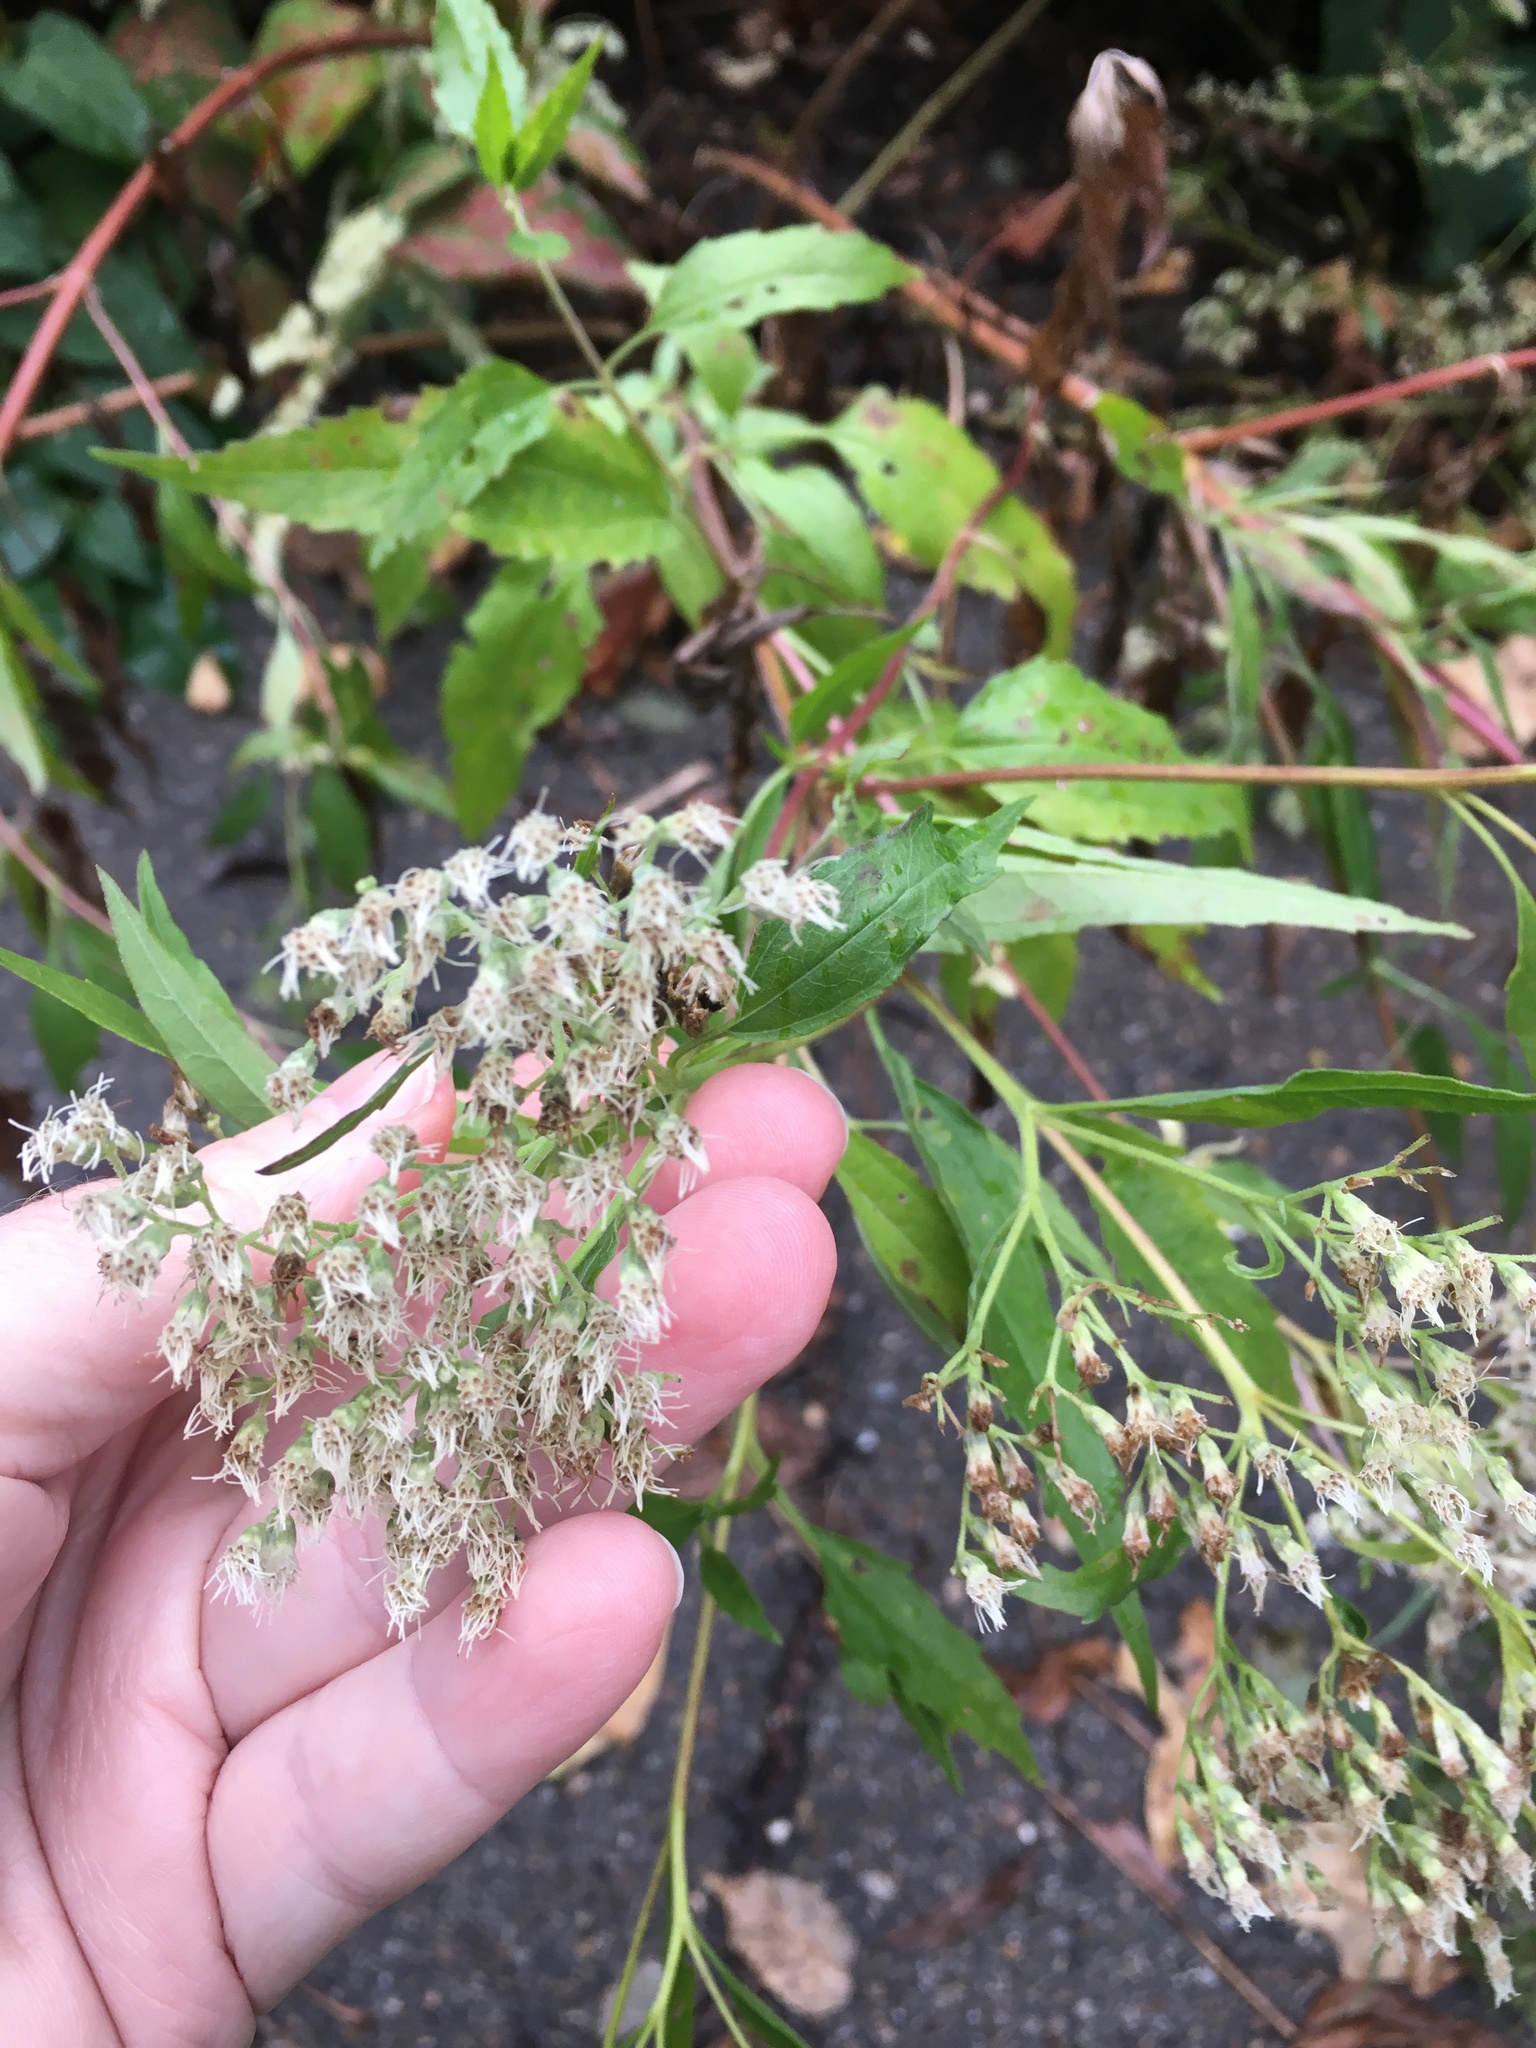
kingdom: Plantae
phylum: Tracheophyta
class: Magnoliopsida
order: Asterales
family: Asteraceae
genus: Eupatorium
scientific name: Eupatorium serotinum
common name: Late boneset
